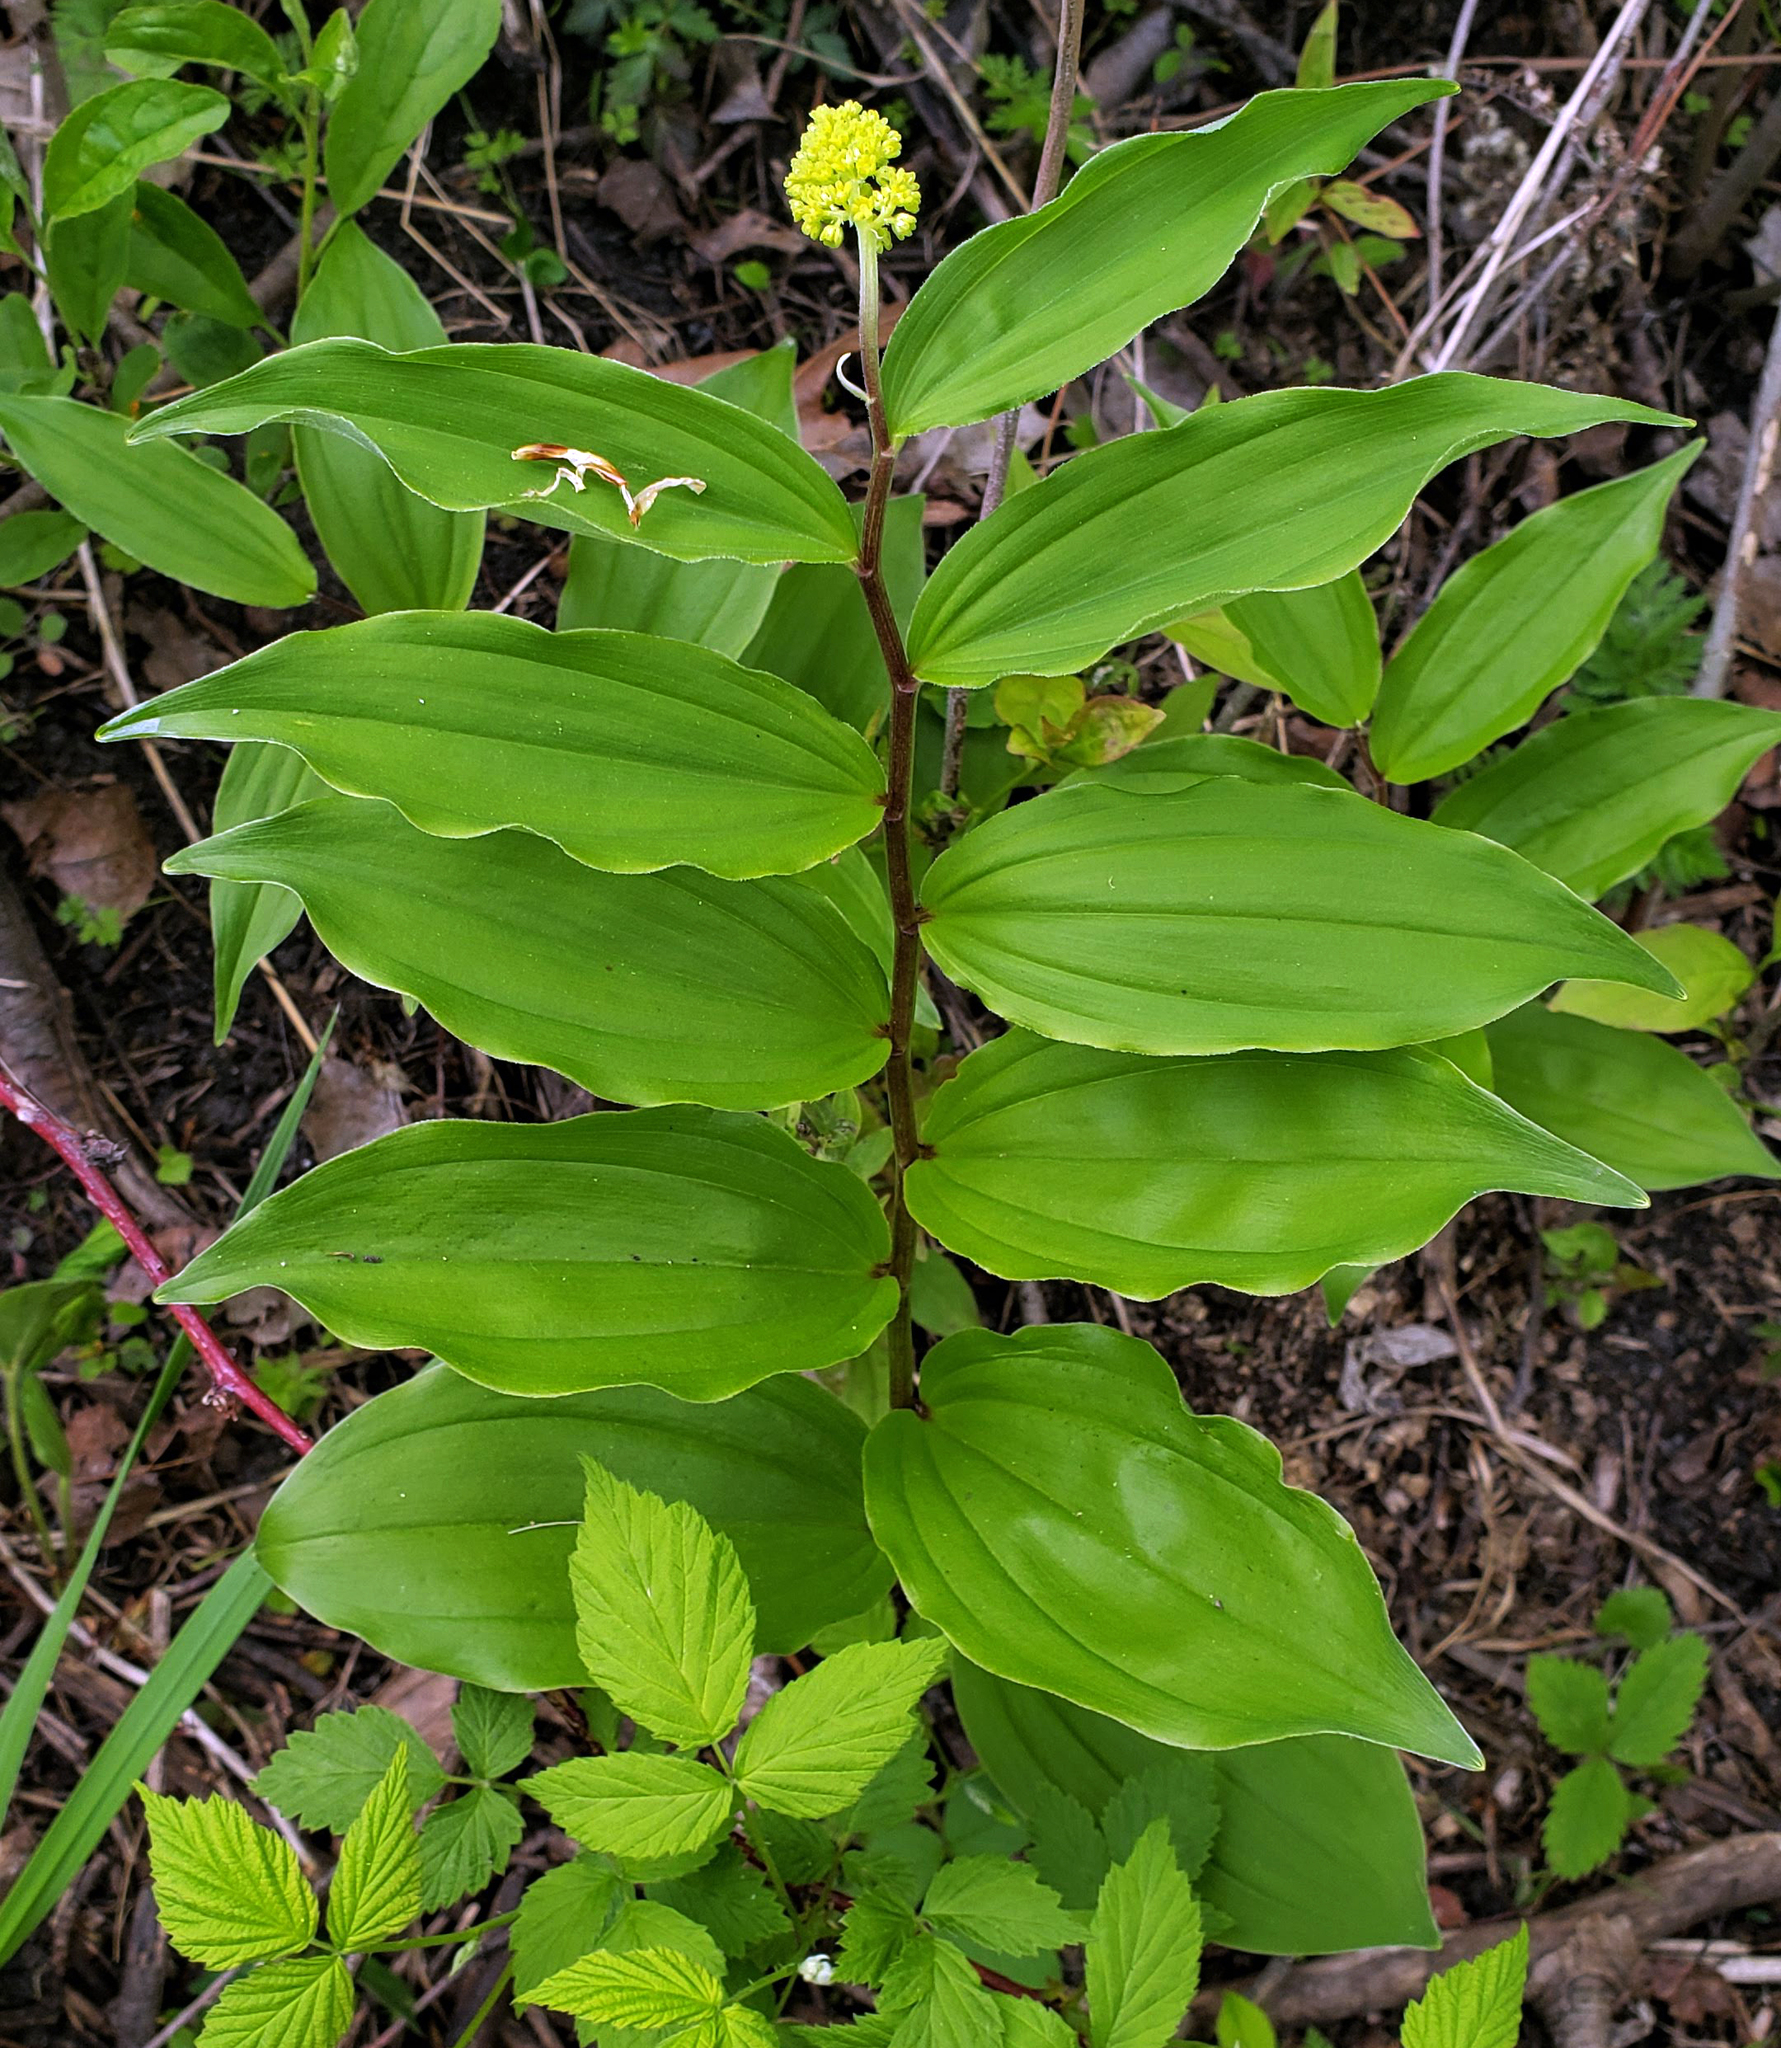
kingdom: Plantae
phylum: Tracheophyta
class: Liliopsida
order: Asparagales
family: Asparagaceae
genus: Maianthemum
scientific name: Maianthemum racemosum
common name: False spikenard
